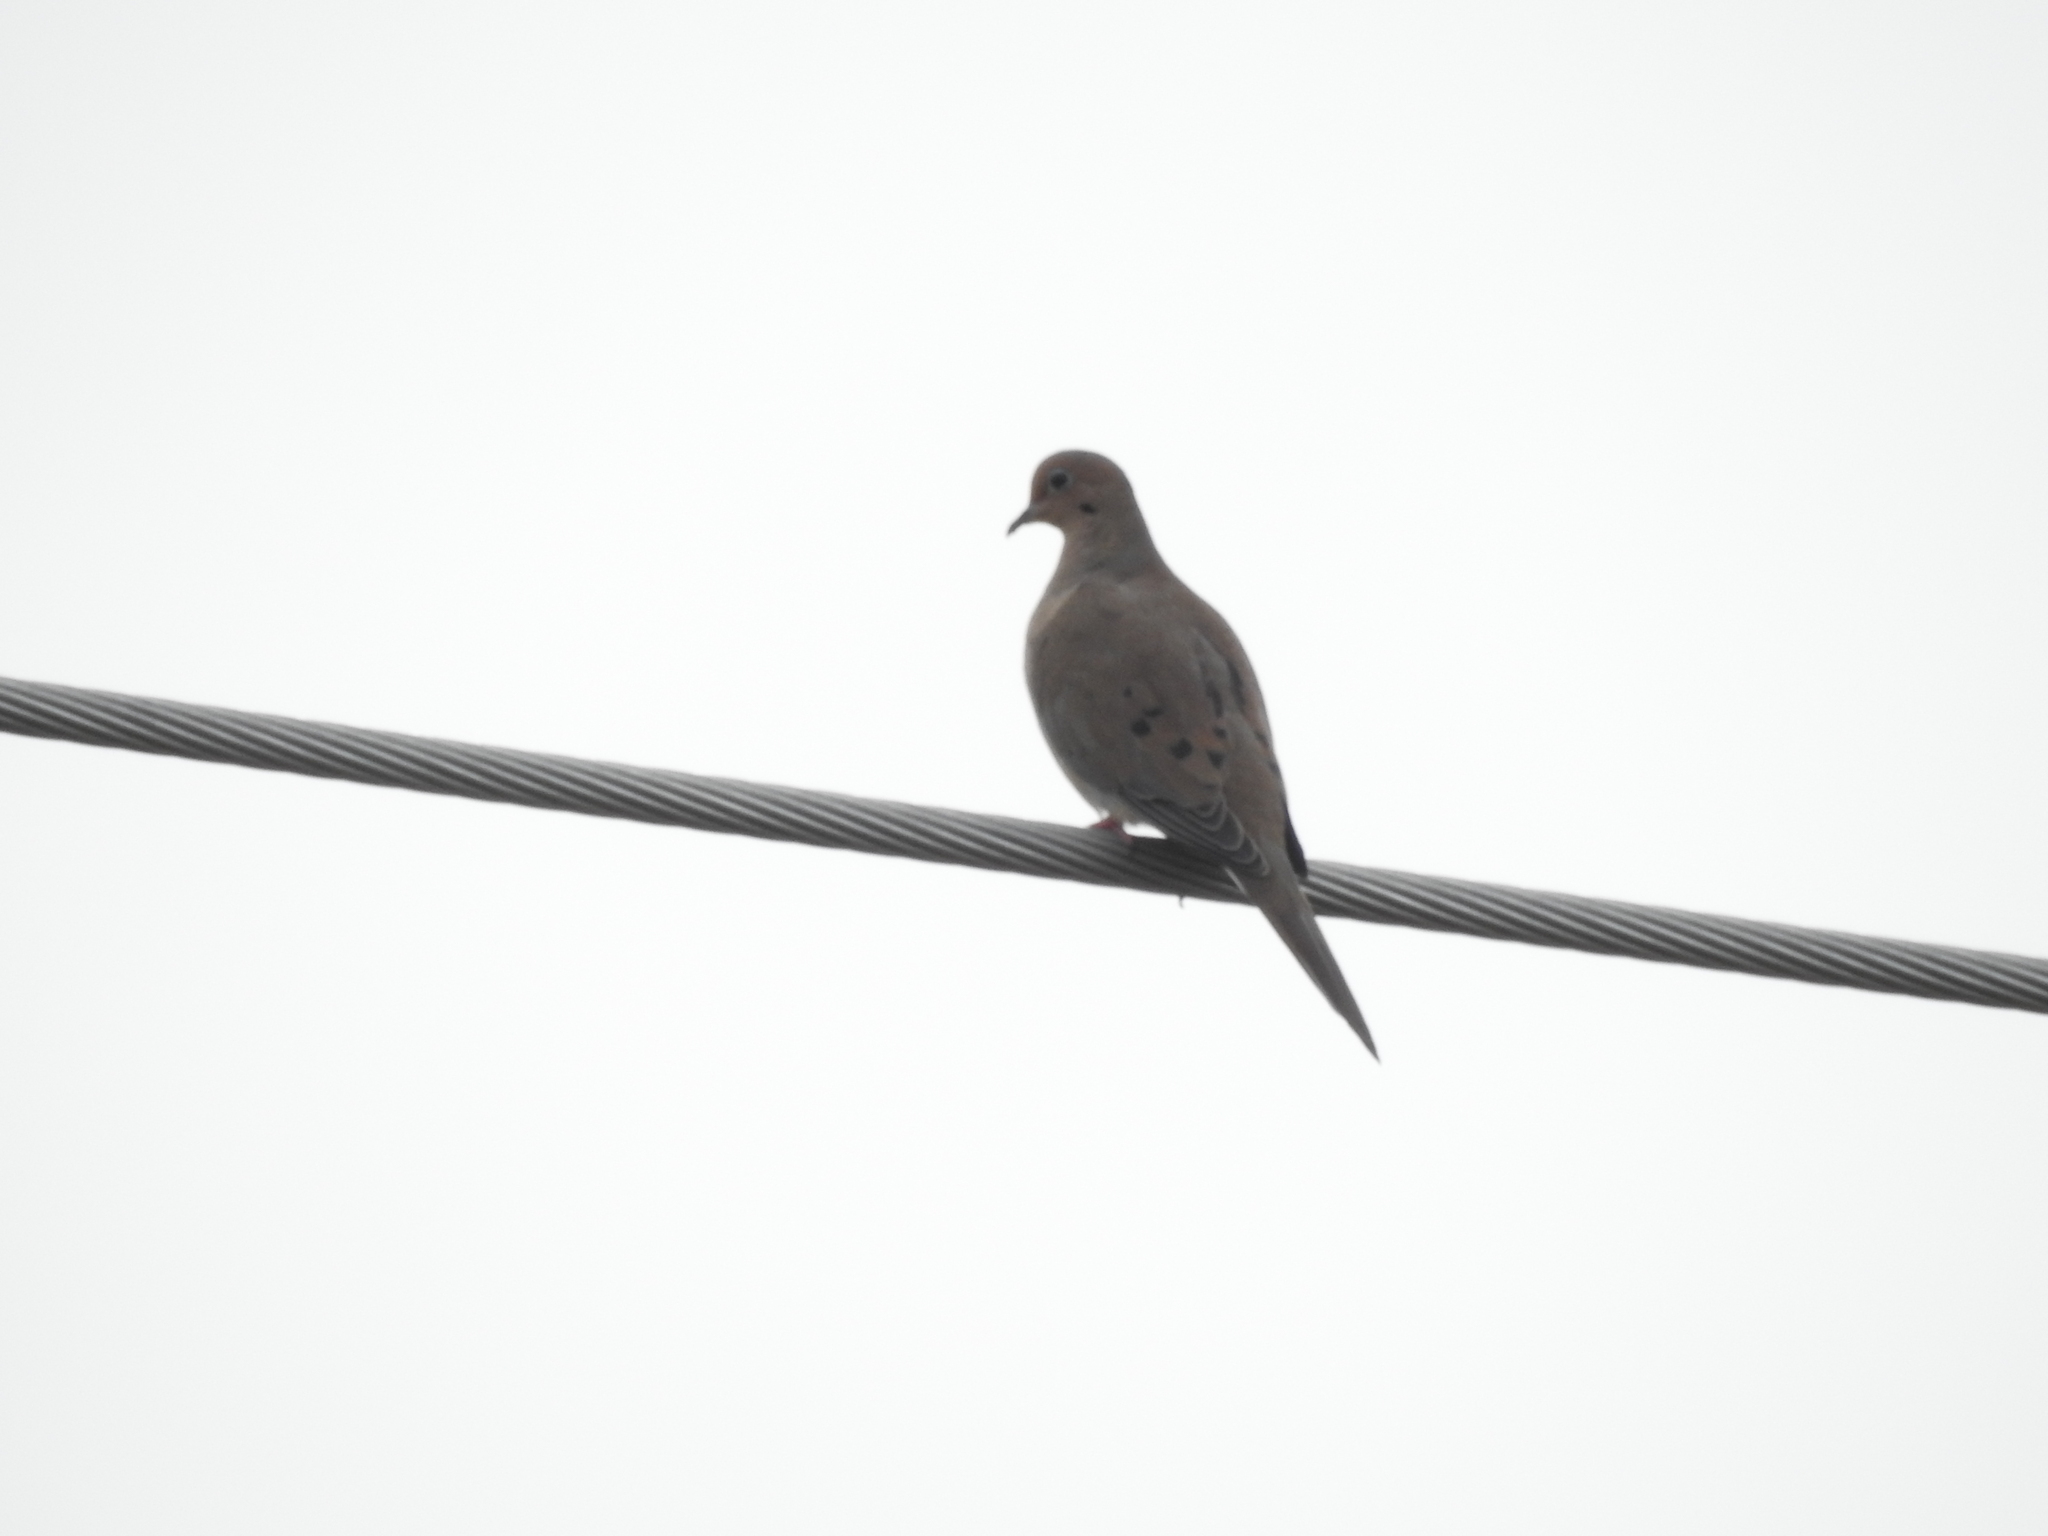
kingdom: Animalia
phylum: Chordata
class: Aves
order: Columbiformes
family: Columbidae
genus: Zenaida
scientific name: Zenaida macroura
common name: Mourning dove
